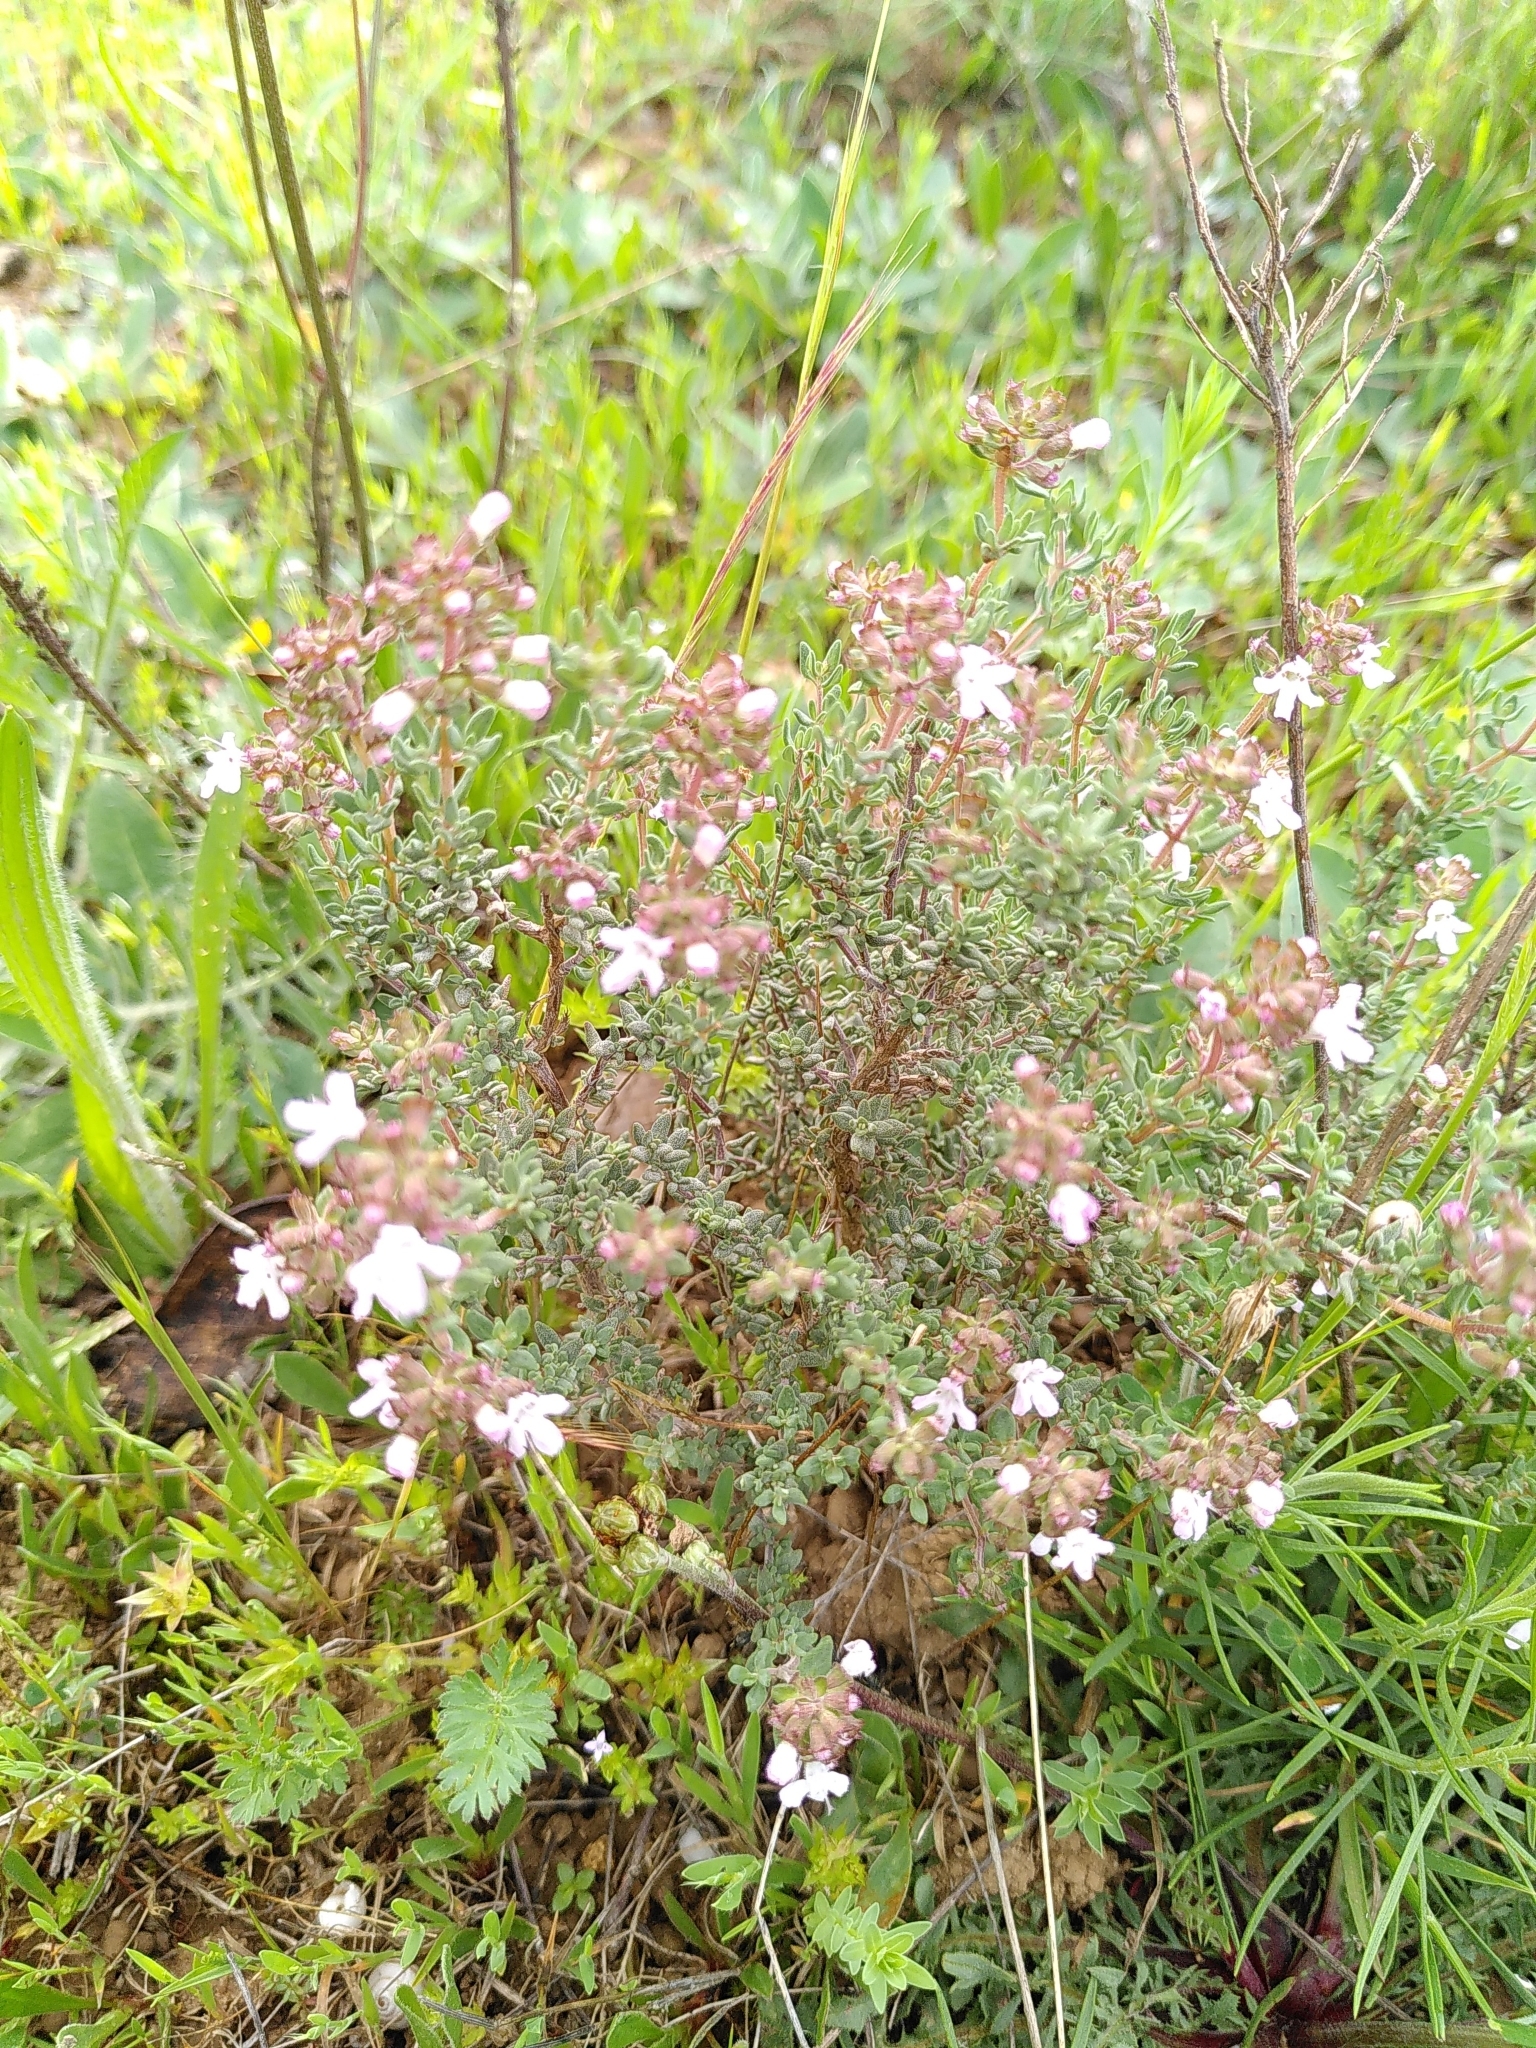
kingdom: Plantae
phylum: Tracheophyta
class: Magnoliopsida
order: Lamiales
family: Lamiaceae
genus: Thymus
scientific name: Thymus vulgaris
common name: Garden thyme
